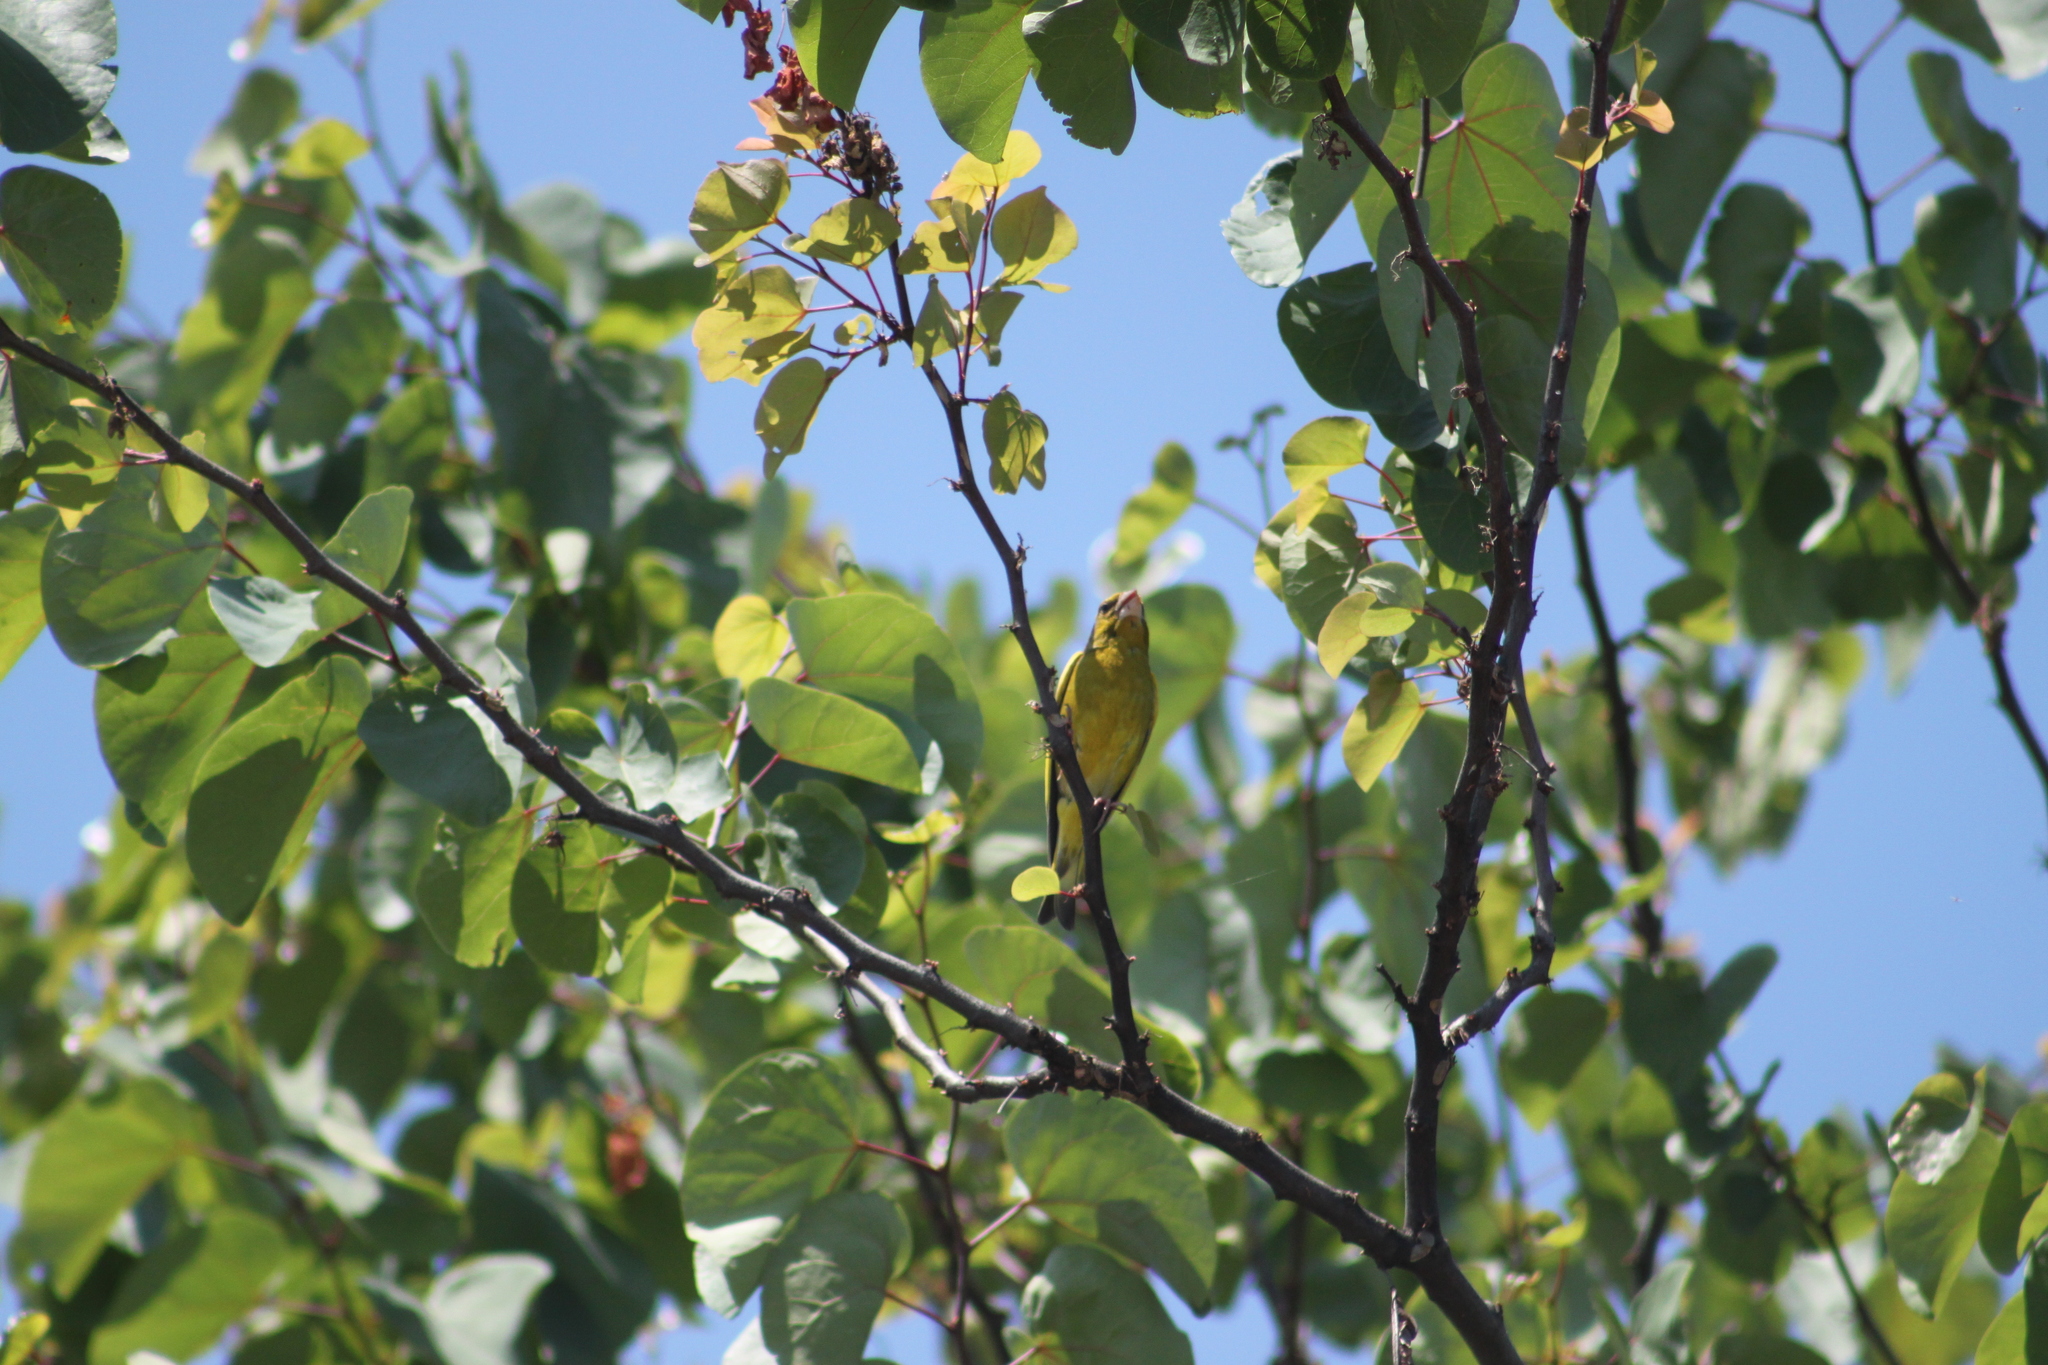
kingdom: Plantae
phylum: Tracheophyta
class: Liliopsida
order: Poales
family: Poaceae
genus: Chloris
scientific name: Chloris chloris
